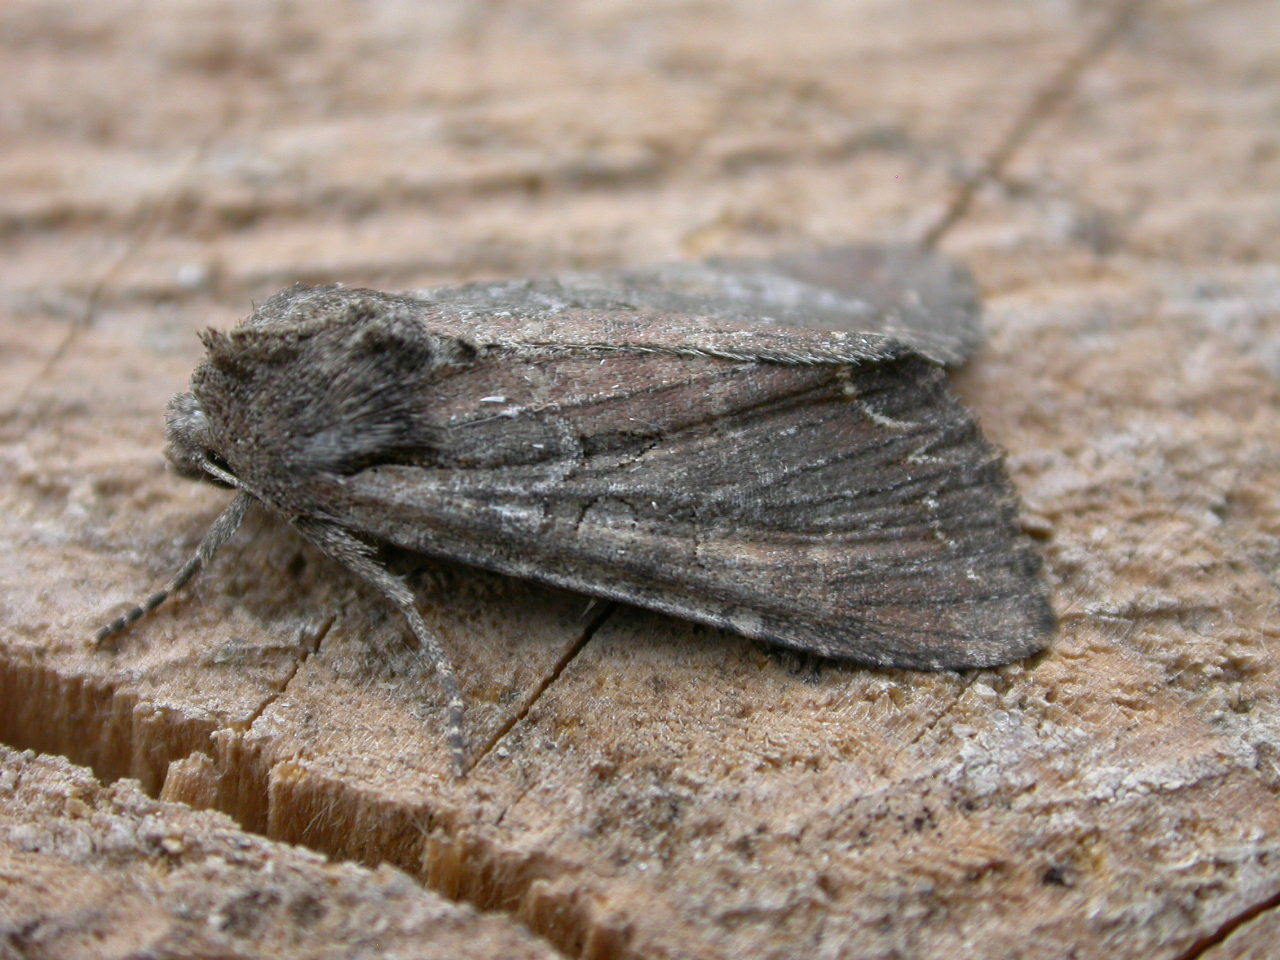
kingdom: Animalia
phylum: Arthropoda
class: Insecta
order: Lepidoptera
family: Noctuidae
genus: Lacanobia
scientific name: Lacanobia suasa
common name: Dog's tooth
